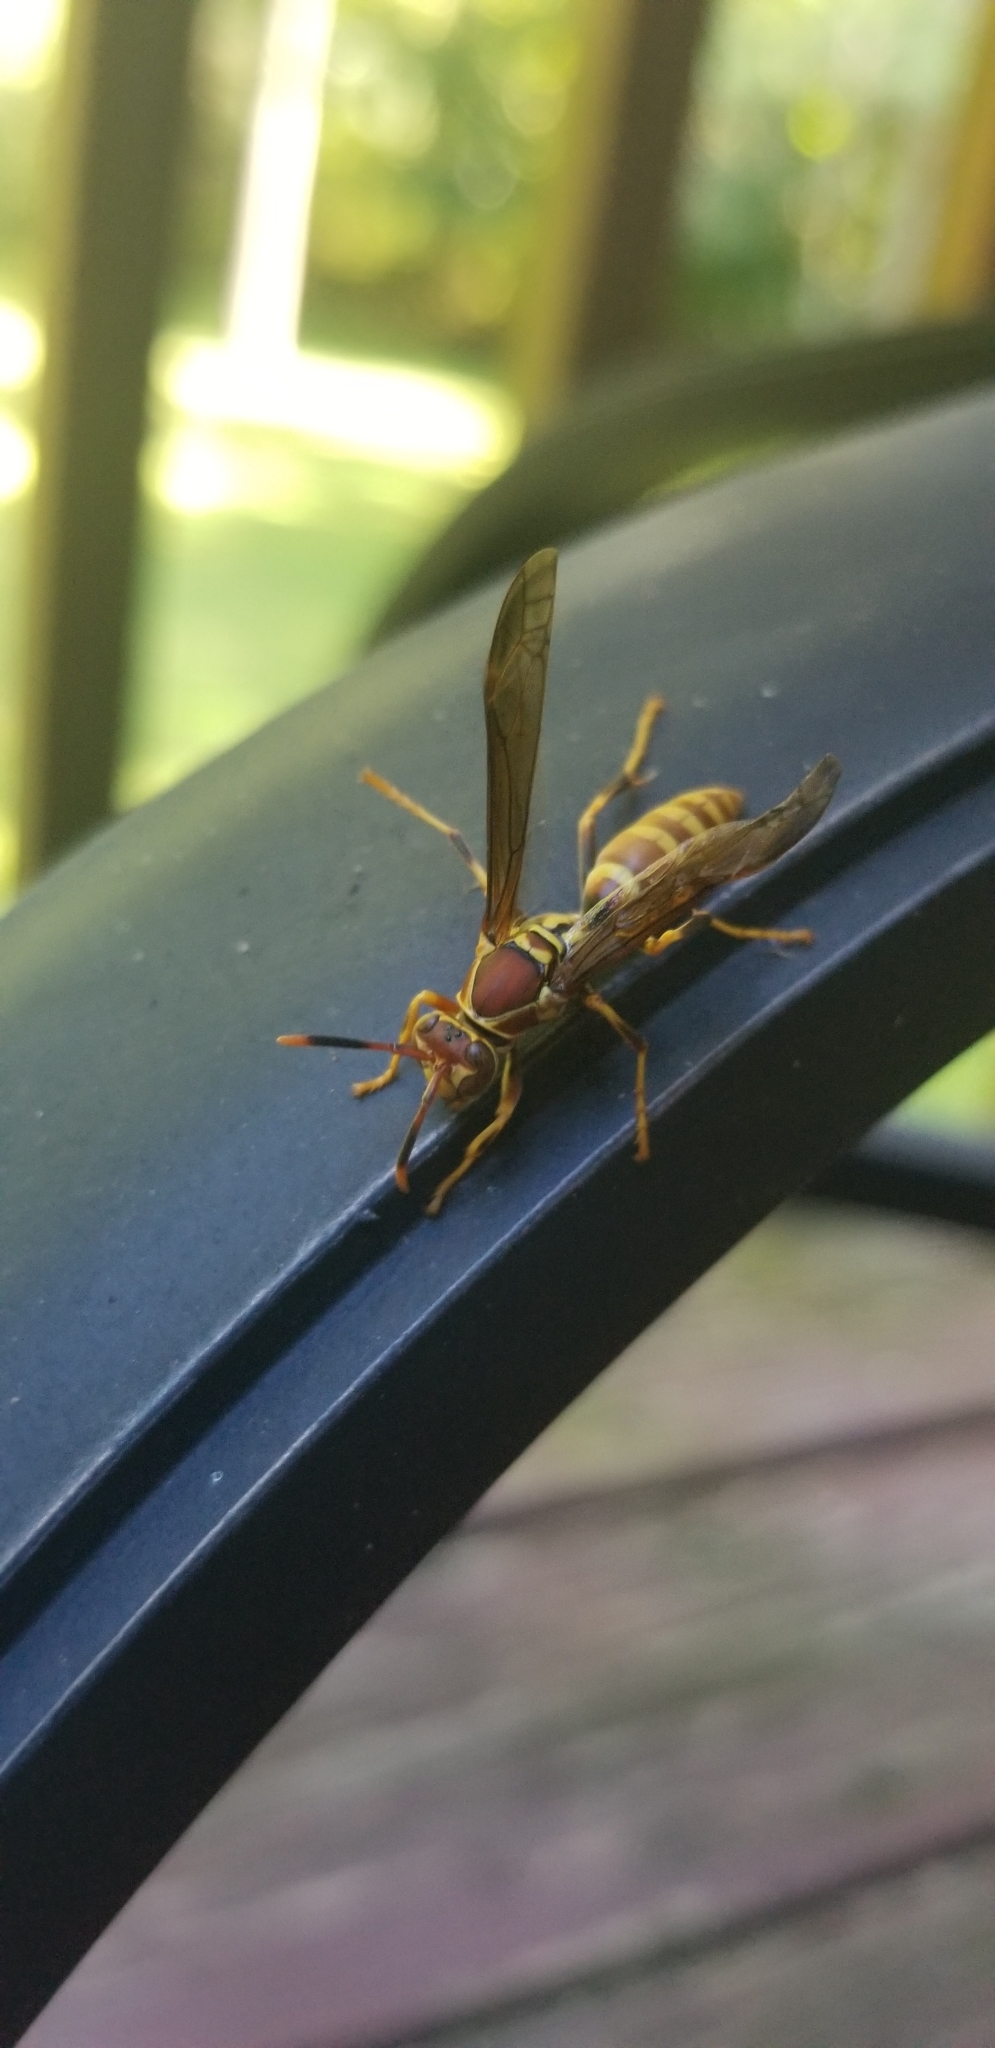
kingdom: Animalia
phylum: Arthropoda
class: Insecta
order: Hymenoptera
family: Eumenidae
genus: Polistes
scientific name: Polistes exclamans
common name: Paper wasp
